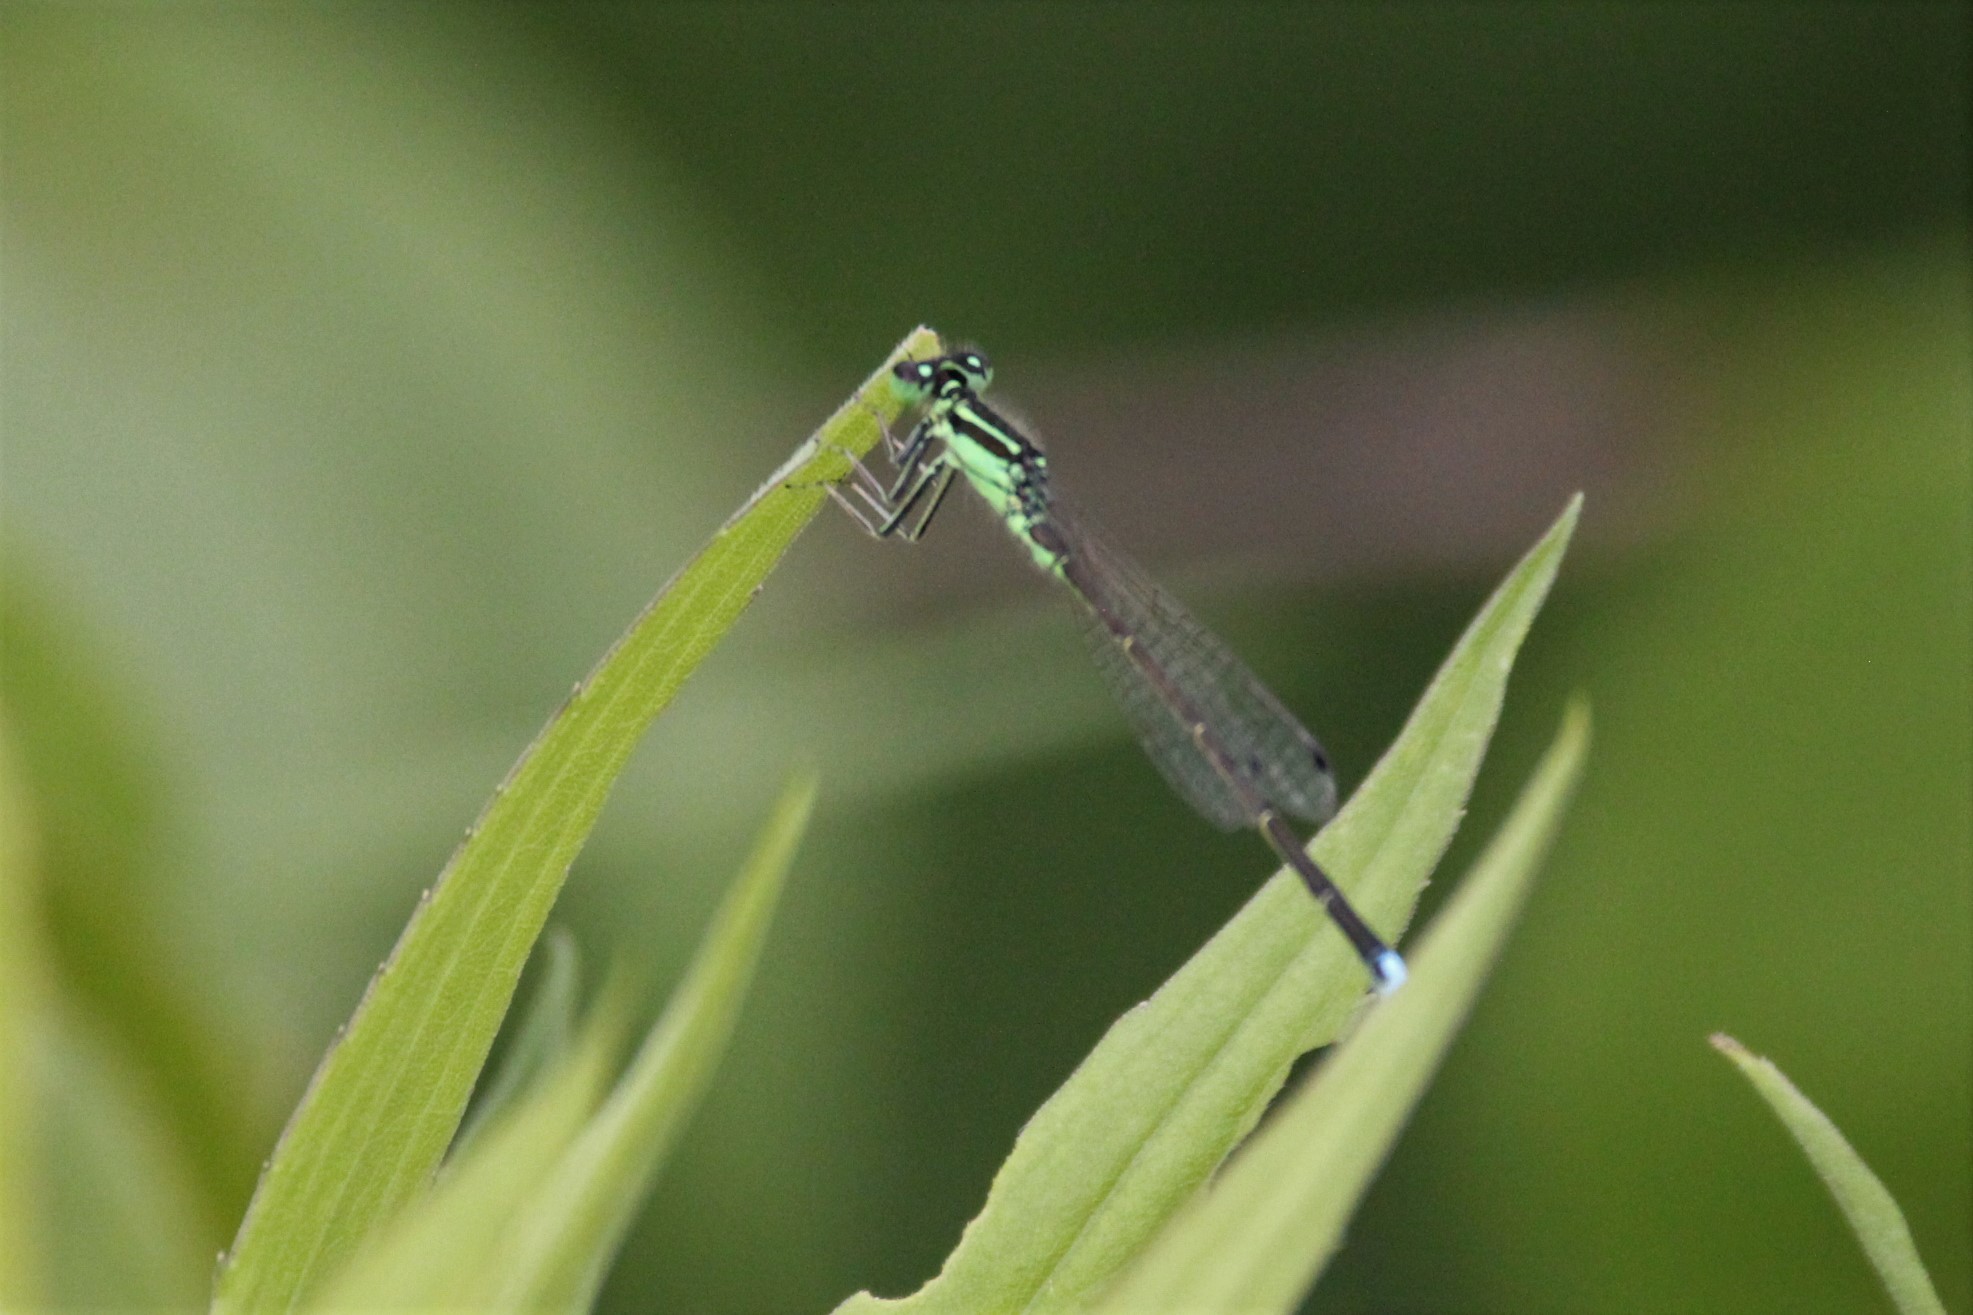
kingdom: Animalia
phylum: Arthropoda
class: Insecta
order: Odonata
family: Coenagrionidae
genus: Ischnura
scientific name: Ischnura verticalis
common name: Eastern forktail
